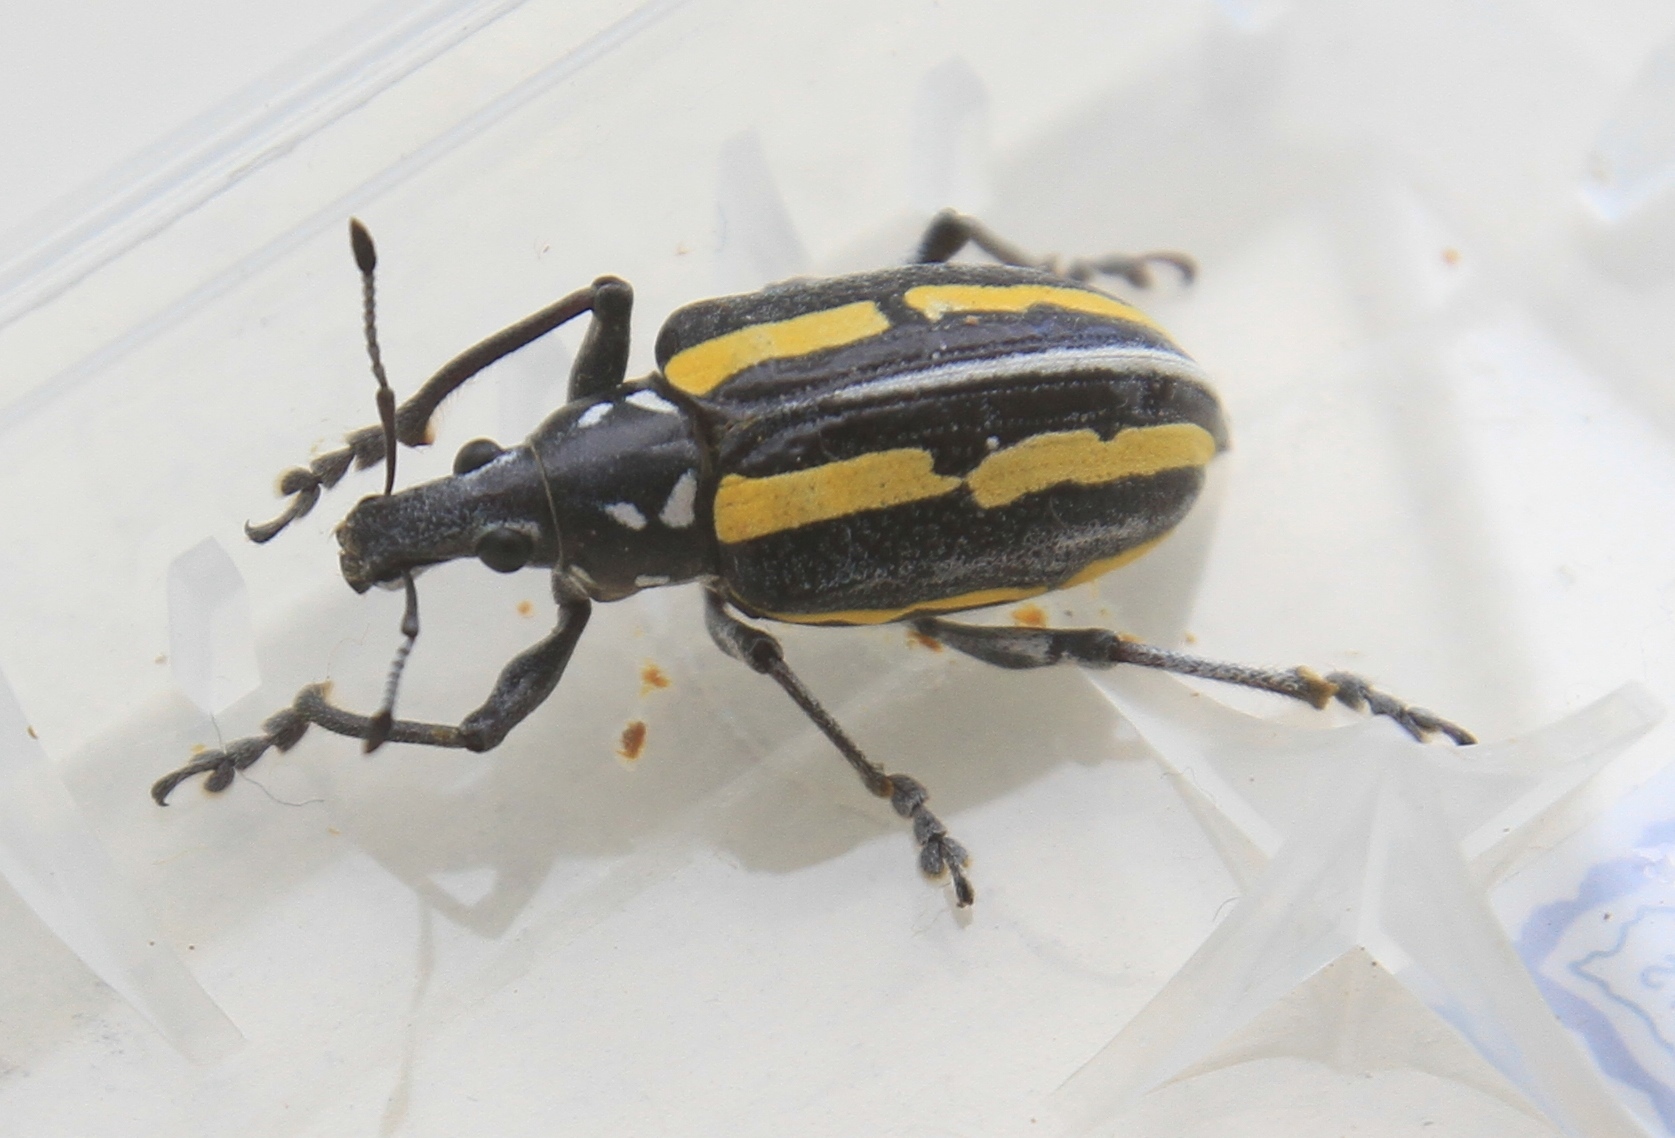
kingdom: Animalia
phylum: Arthropoda
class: Insecta
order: Coleoptera
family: Curculionidae
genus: Exophthalmus
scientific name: Exophthalmus quadrivittatus
